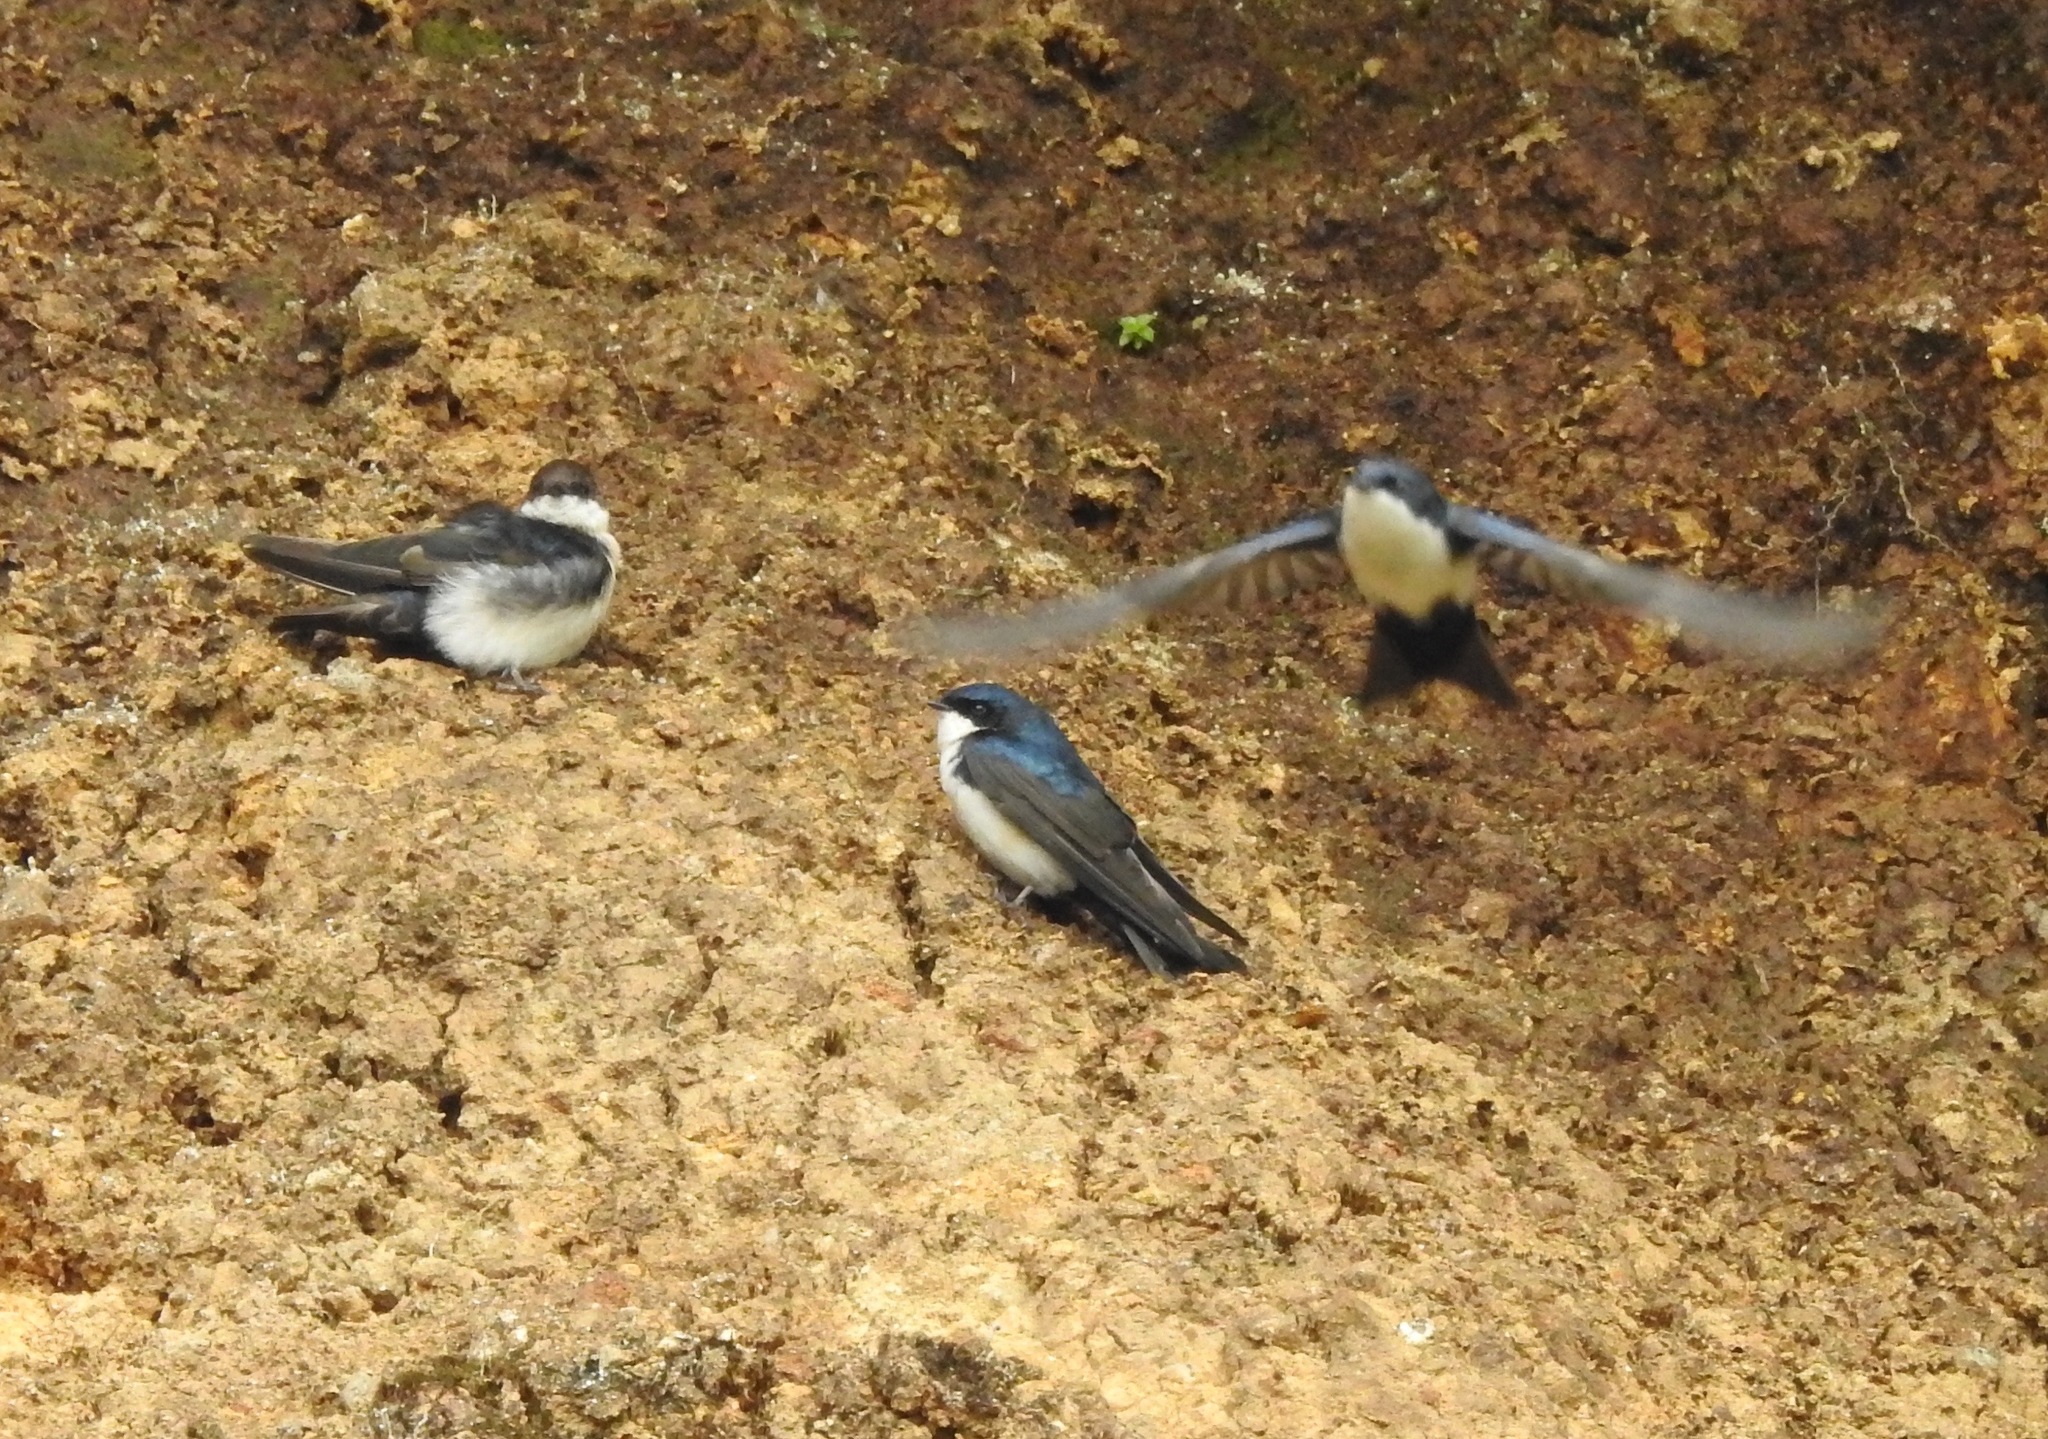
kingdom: Animalia
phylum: Chordata
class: Aves
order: Passeriformes
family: Hirundinidae
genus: Notiochelidon
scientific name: Notiochelidon cyanoleuca
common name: Blue-and-white swallow
